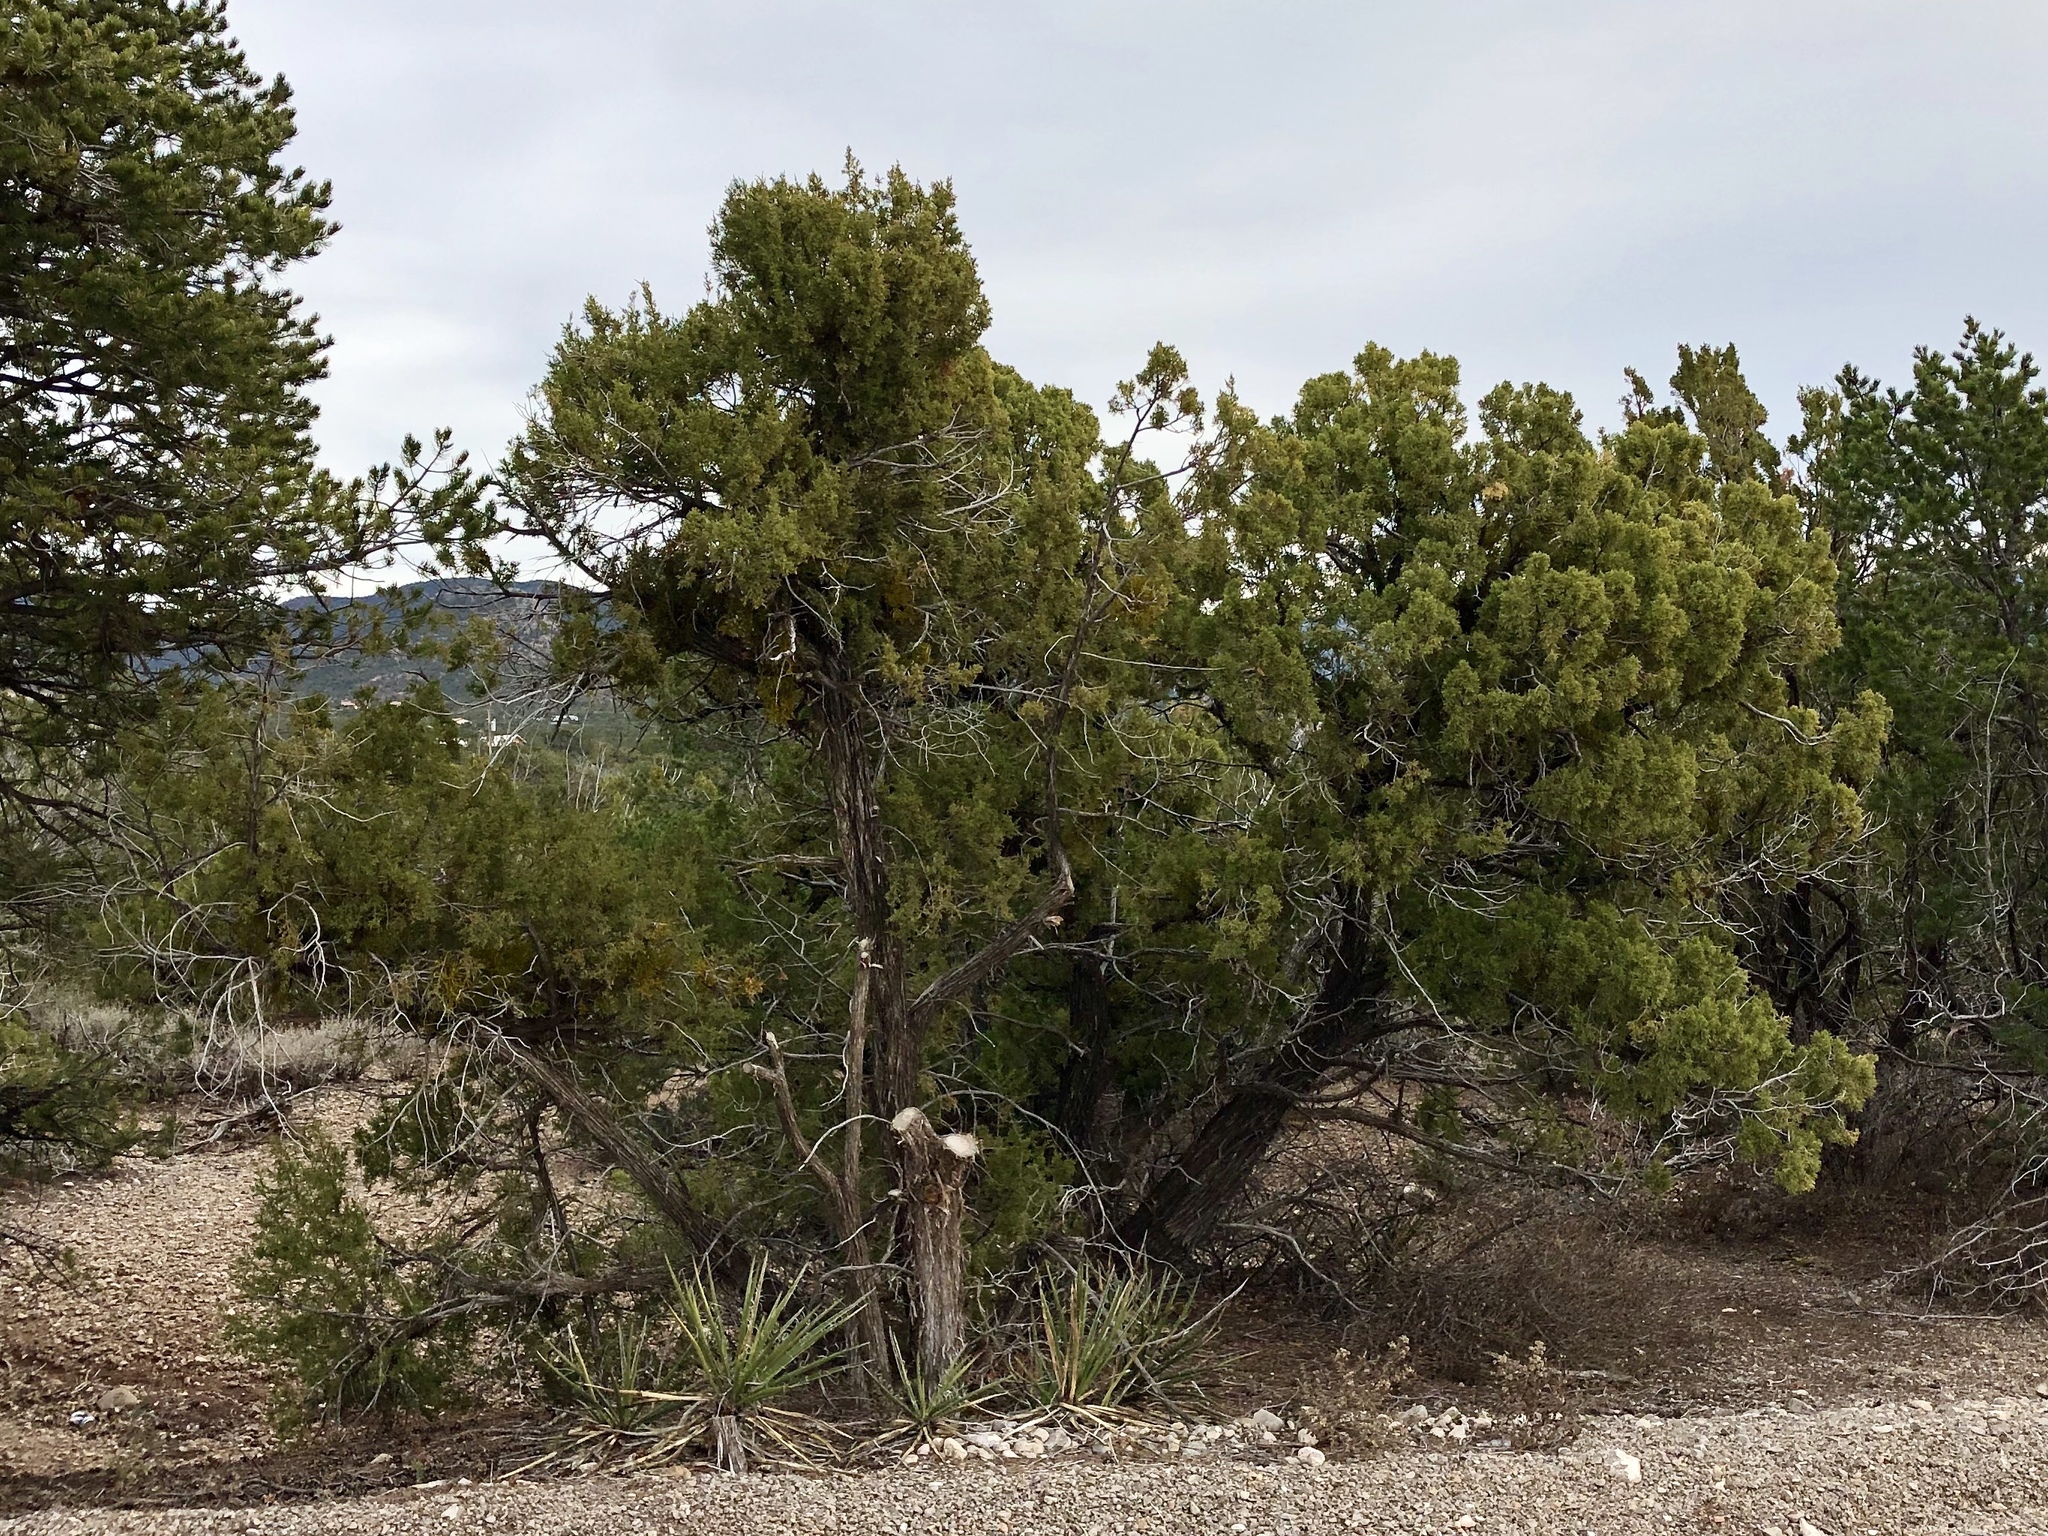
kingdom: Plantae
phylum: Tracheophyta
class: Pinopsida
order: Pinales
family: Cupressaceae
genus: Juniperus
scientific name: Juniperus monosperma
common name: One-seed juniper
